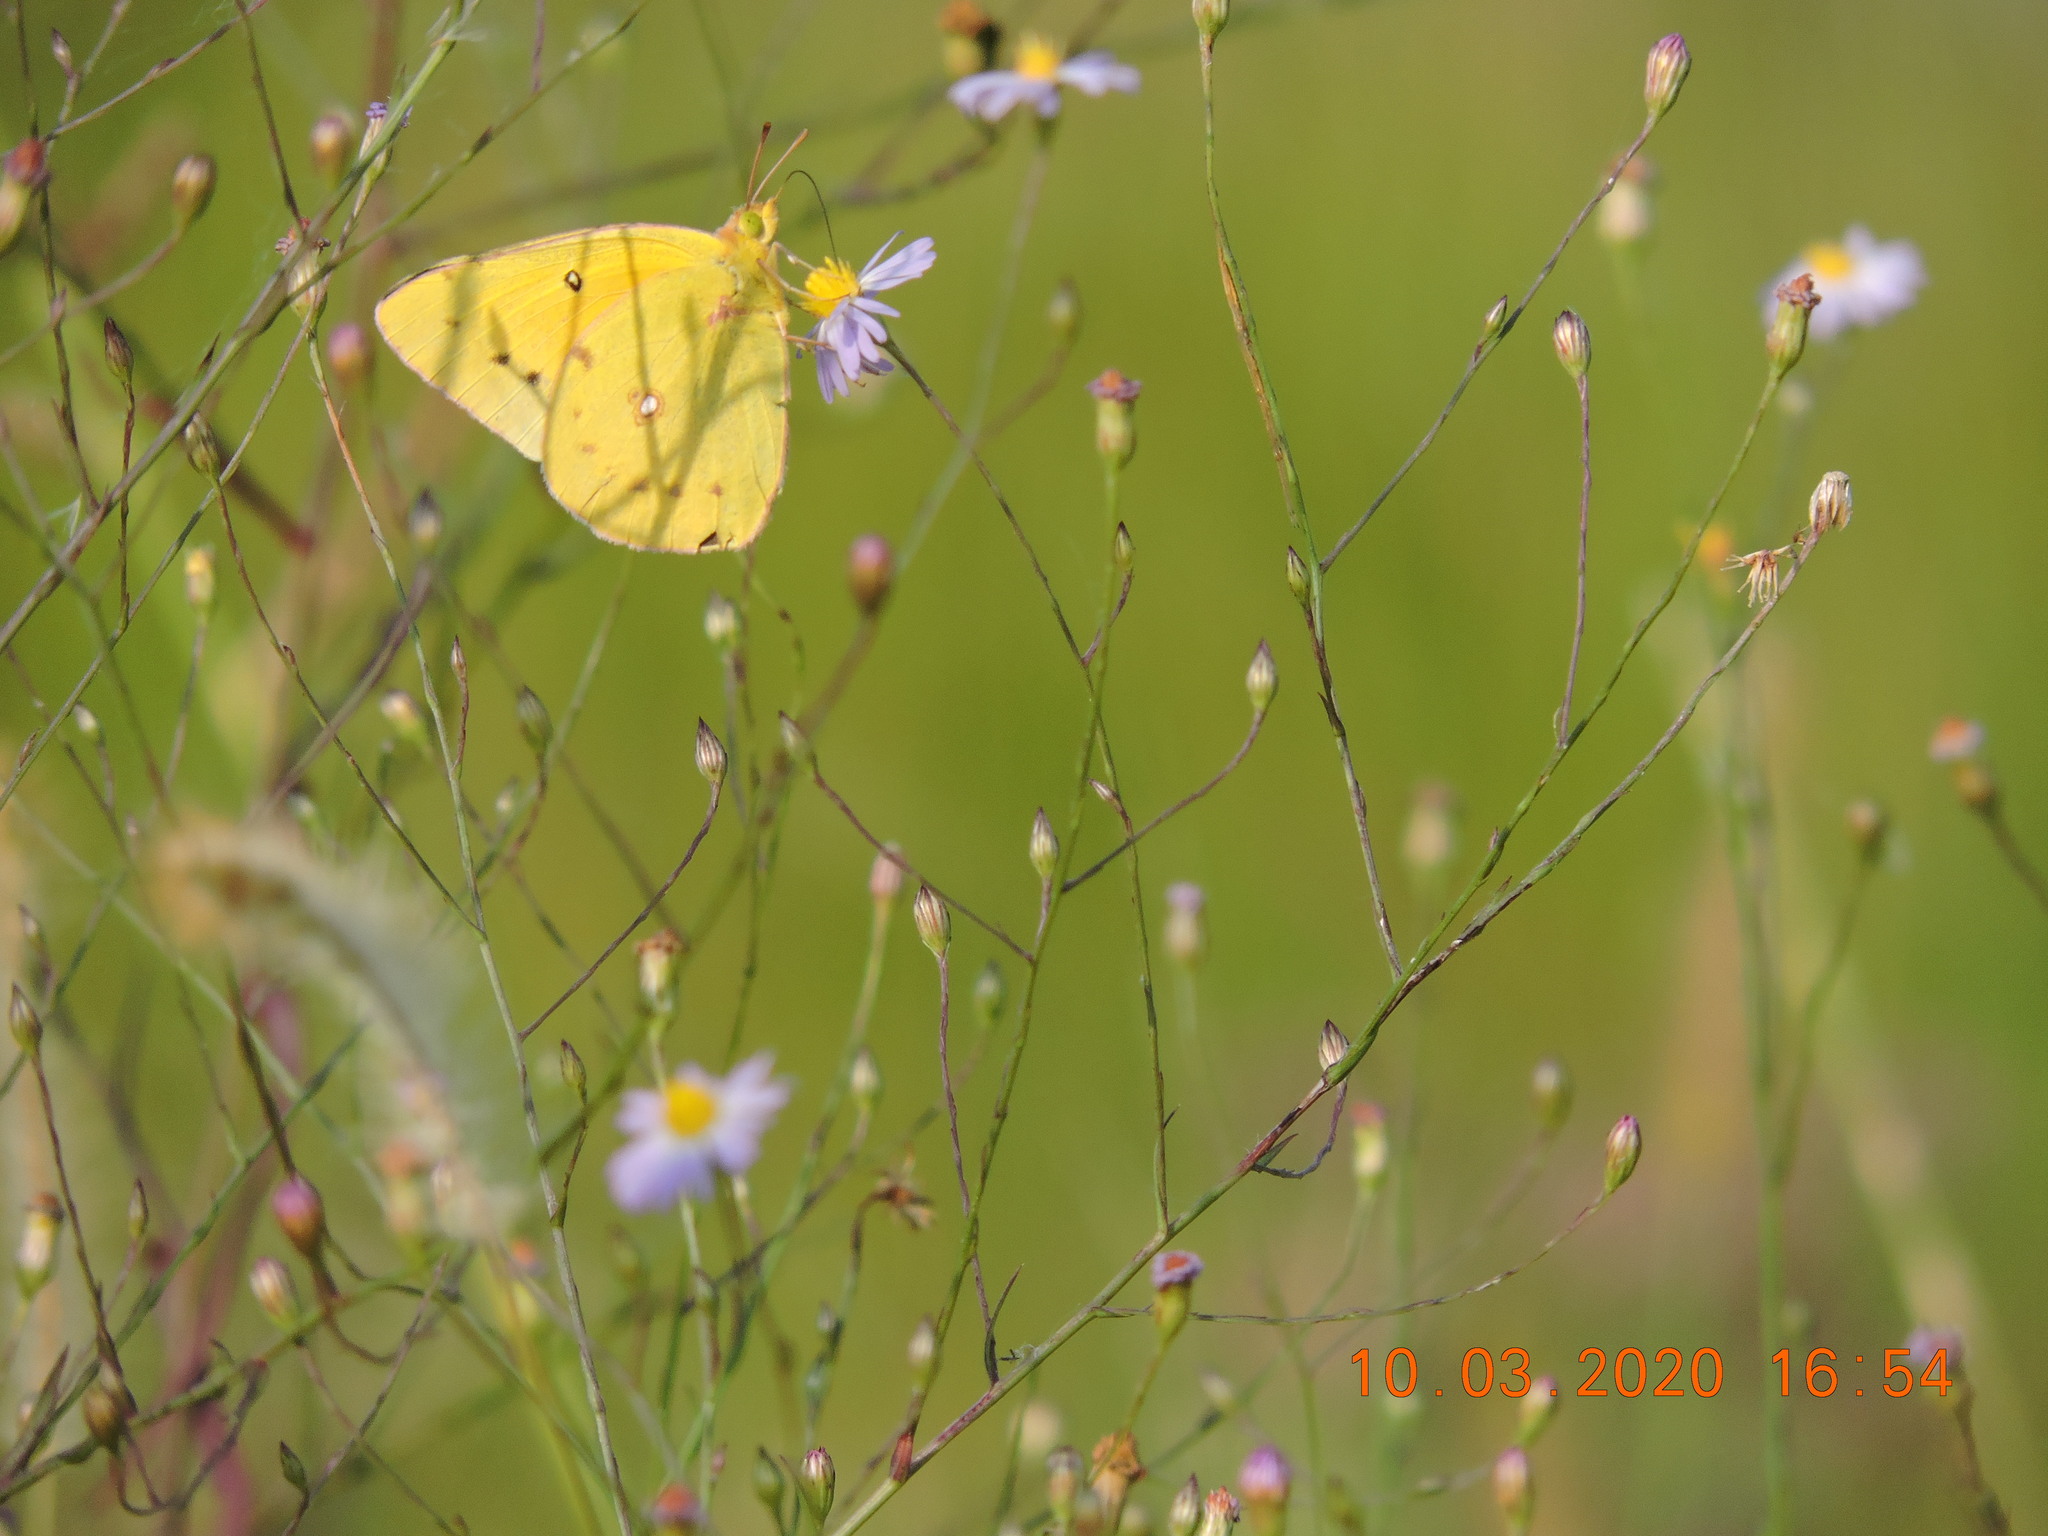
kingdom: Animalia
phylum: Arthropoda
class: Insecta
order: Lepidoptera
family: Pieridae
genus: Colias
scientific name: Colias eurytheme
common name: Alfalfa butterfly
